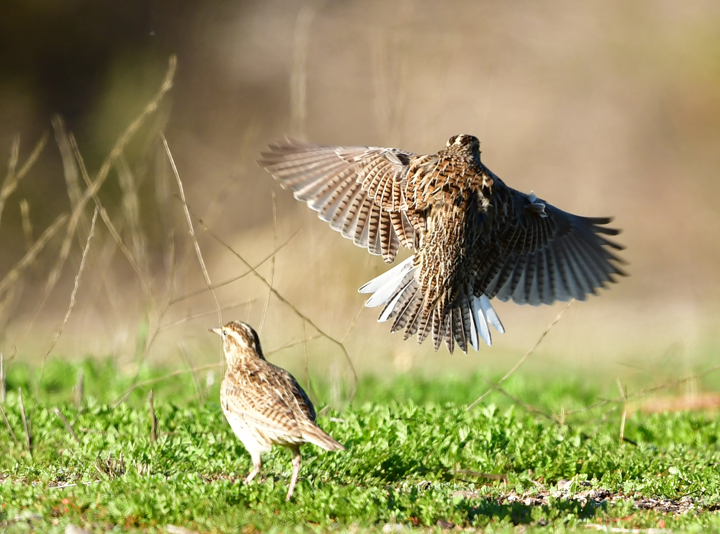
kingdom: Animalia
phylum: Chordata
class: Aves
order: Passeriformes
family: Icteridae
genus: Sturnella
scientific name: Sturnella neglecta
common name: Western meadowlark
